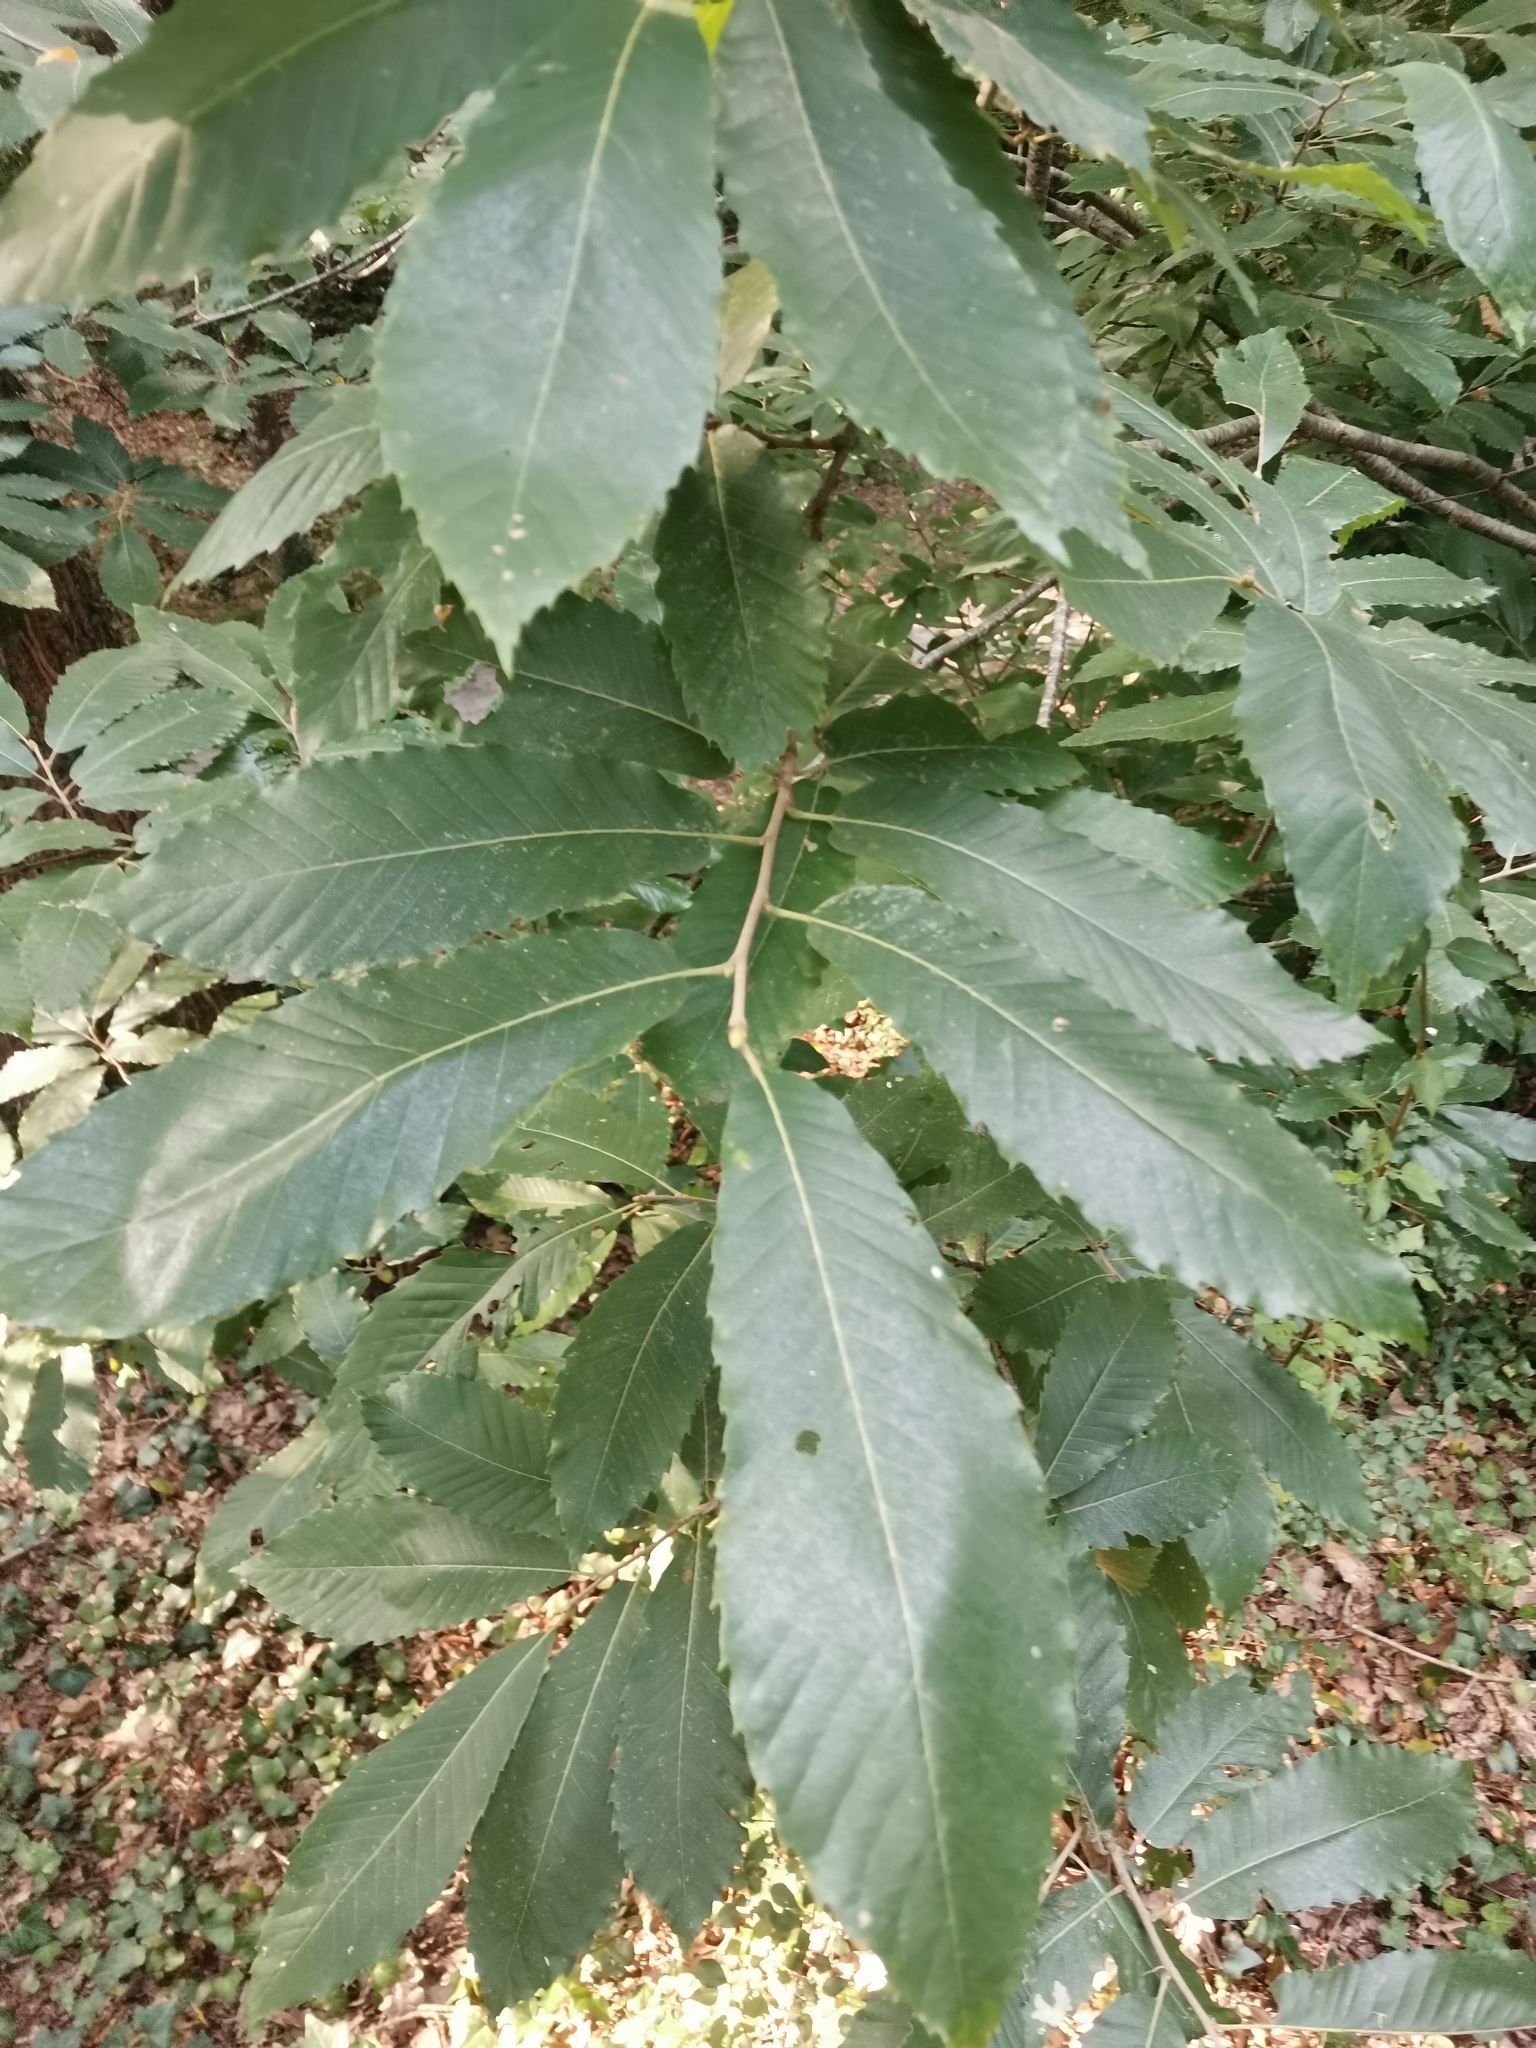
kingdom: Plantae
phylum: Tracheophyta
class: Magnoliopsida
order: Fagales
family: Fagaceae
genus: Castanea
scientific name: Castanea sativa
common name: Sweet chestnut
